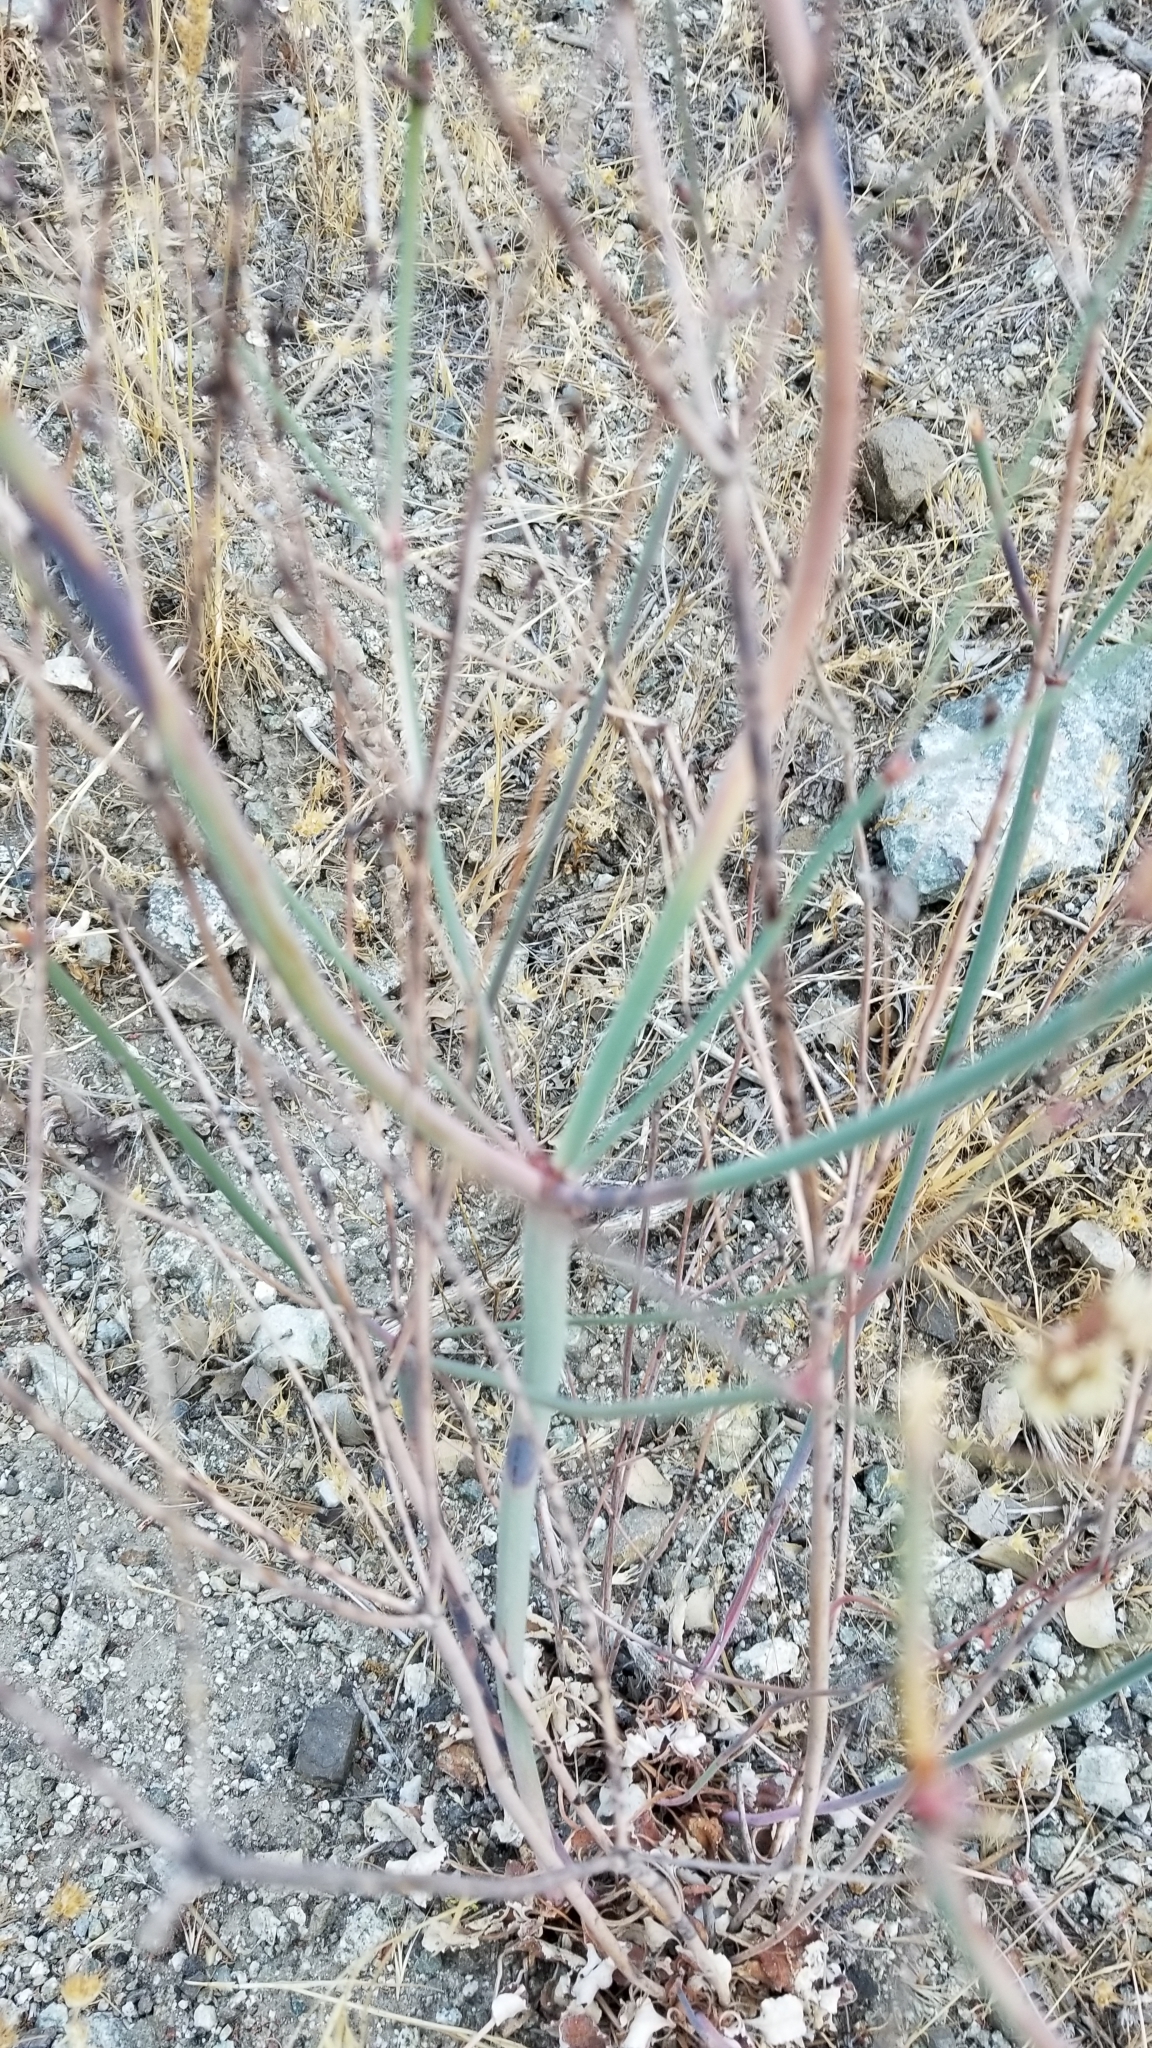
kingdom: Plantae
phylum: Tracheophyta
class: Magnoliopsida
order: Caryophyllales
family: Polygonaceae
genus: Eriogonum
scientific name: Eriogonum nudum
